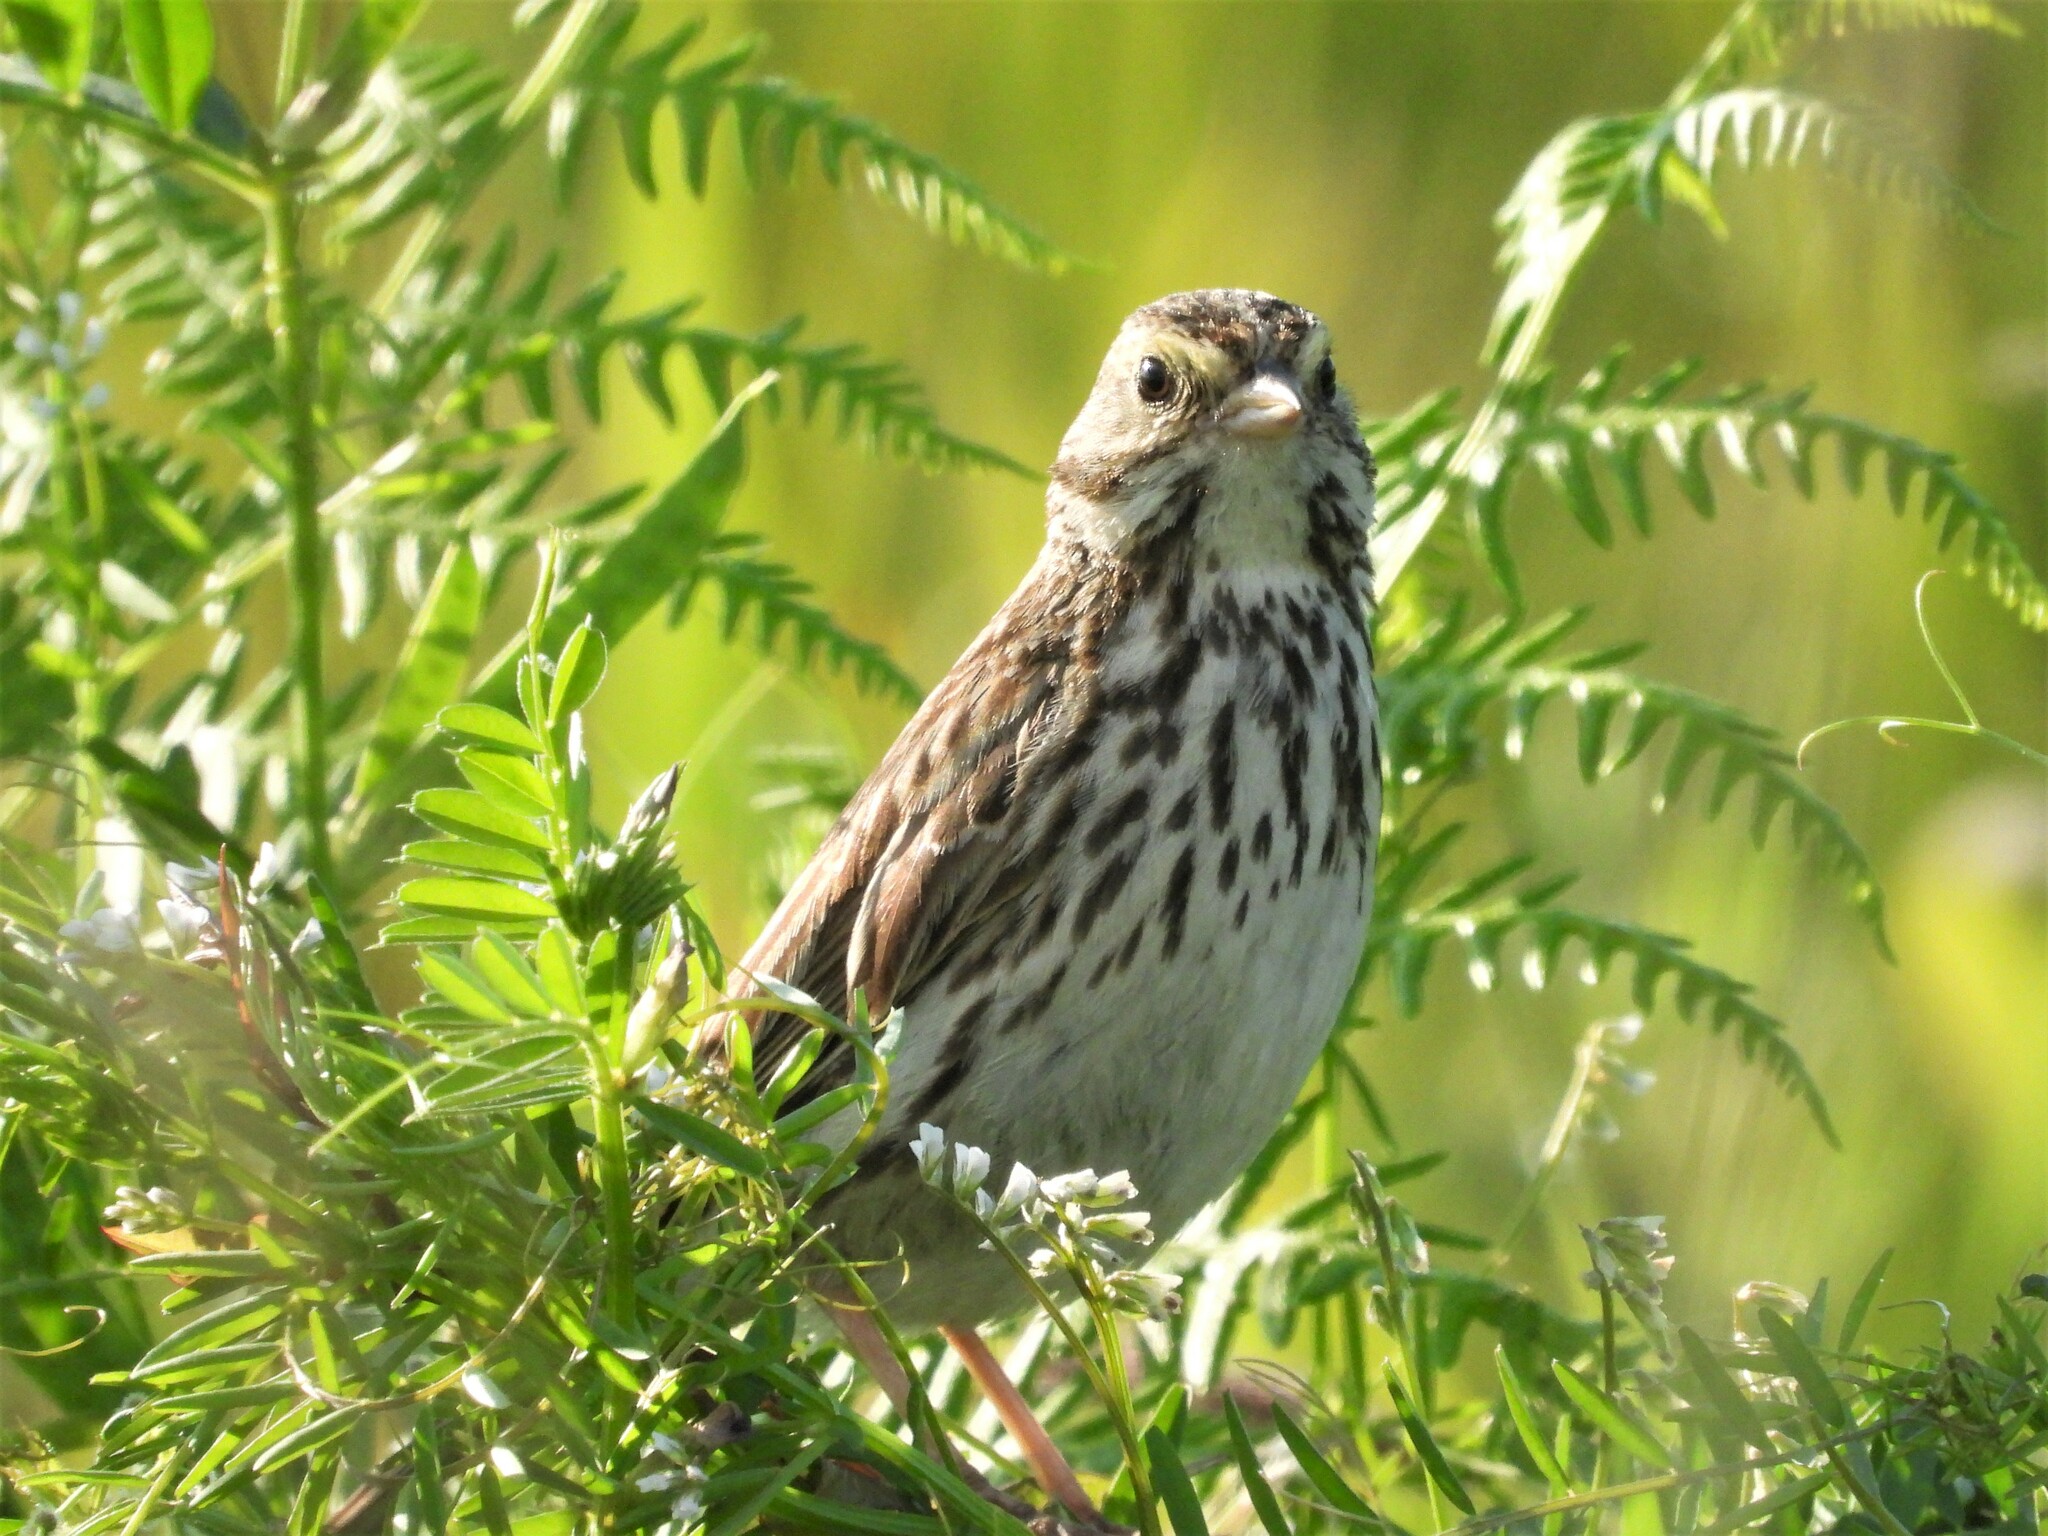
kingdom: Animalia
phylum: Chordata
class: Aves
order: Passeriformes
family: Passerellidae
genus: Passerculus
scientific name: Passerculus sandwichensis
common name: Savannah sparrow
